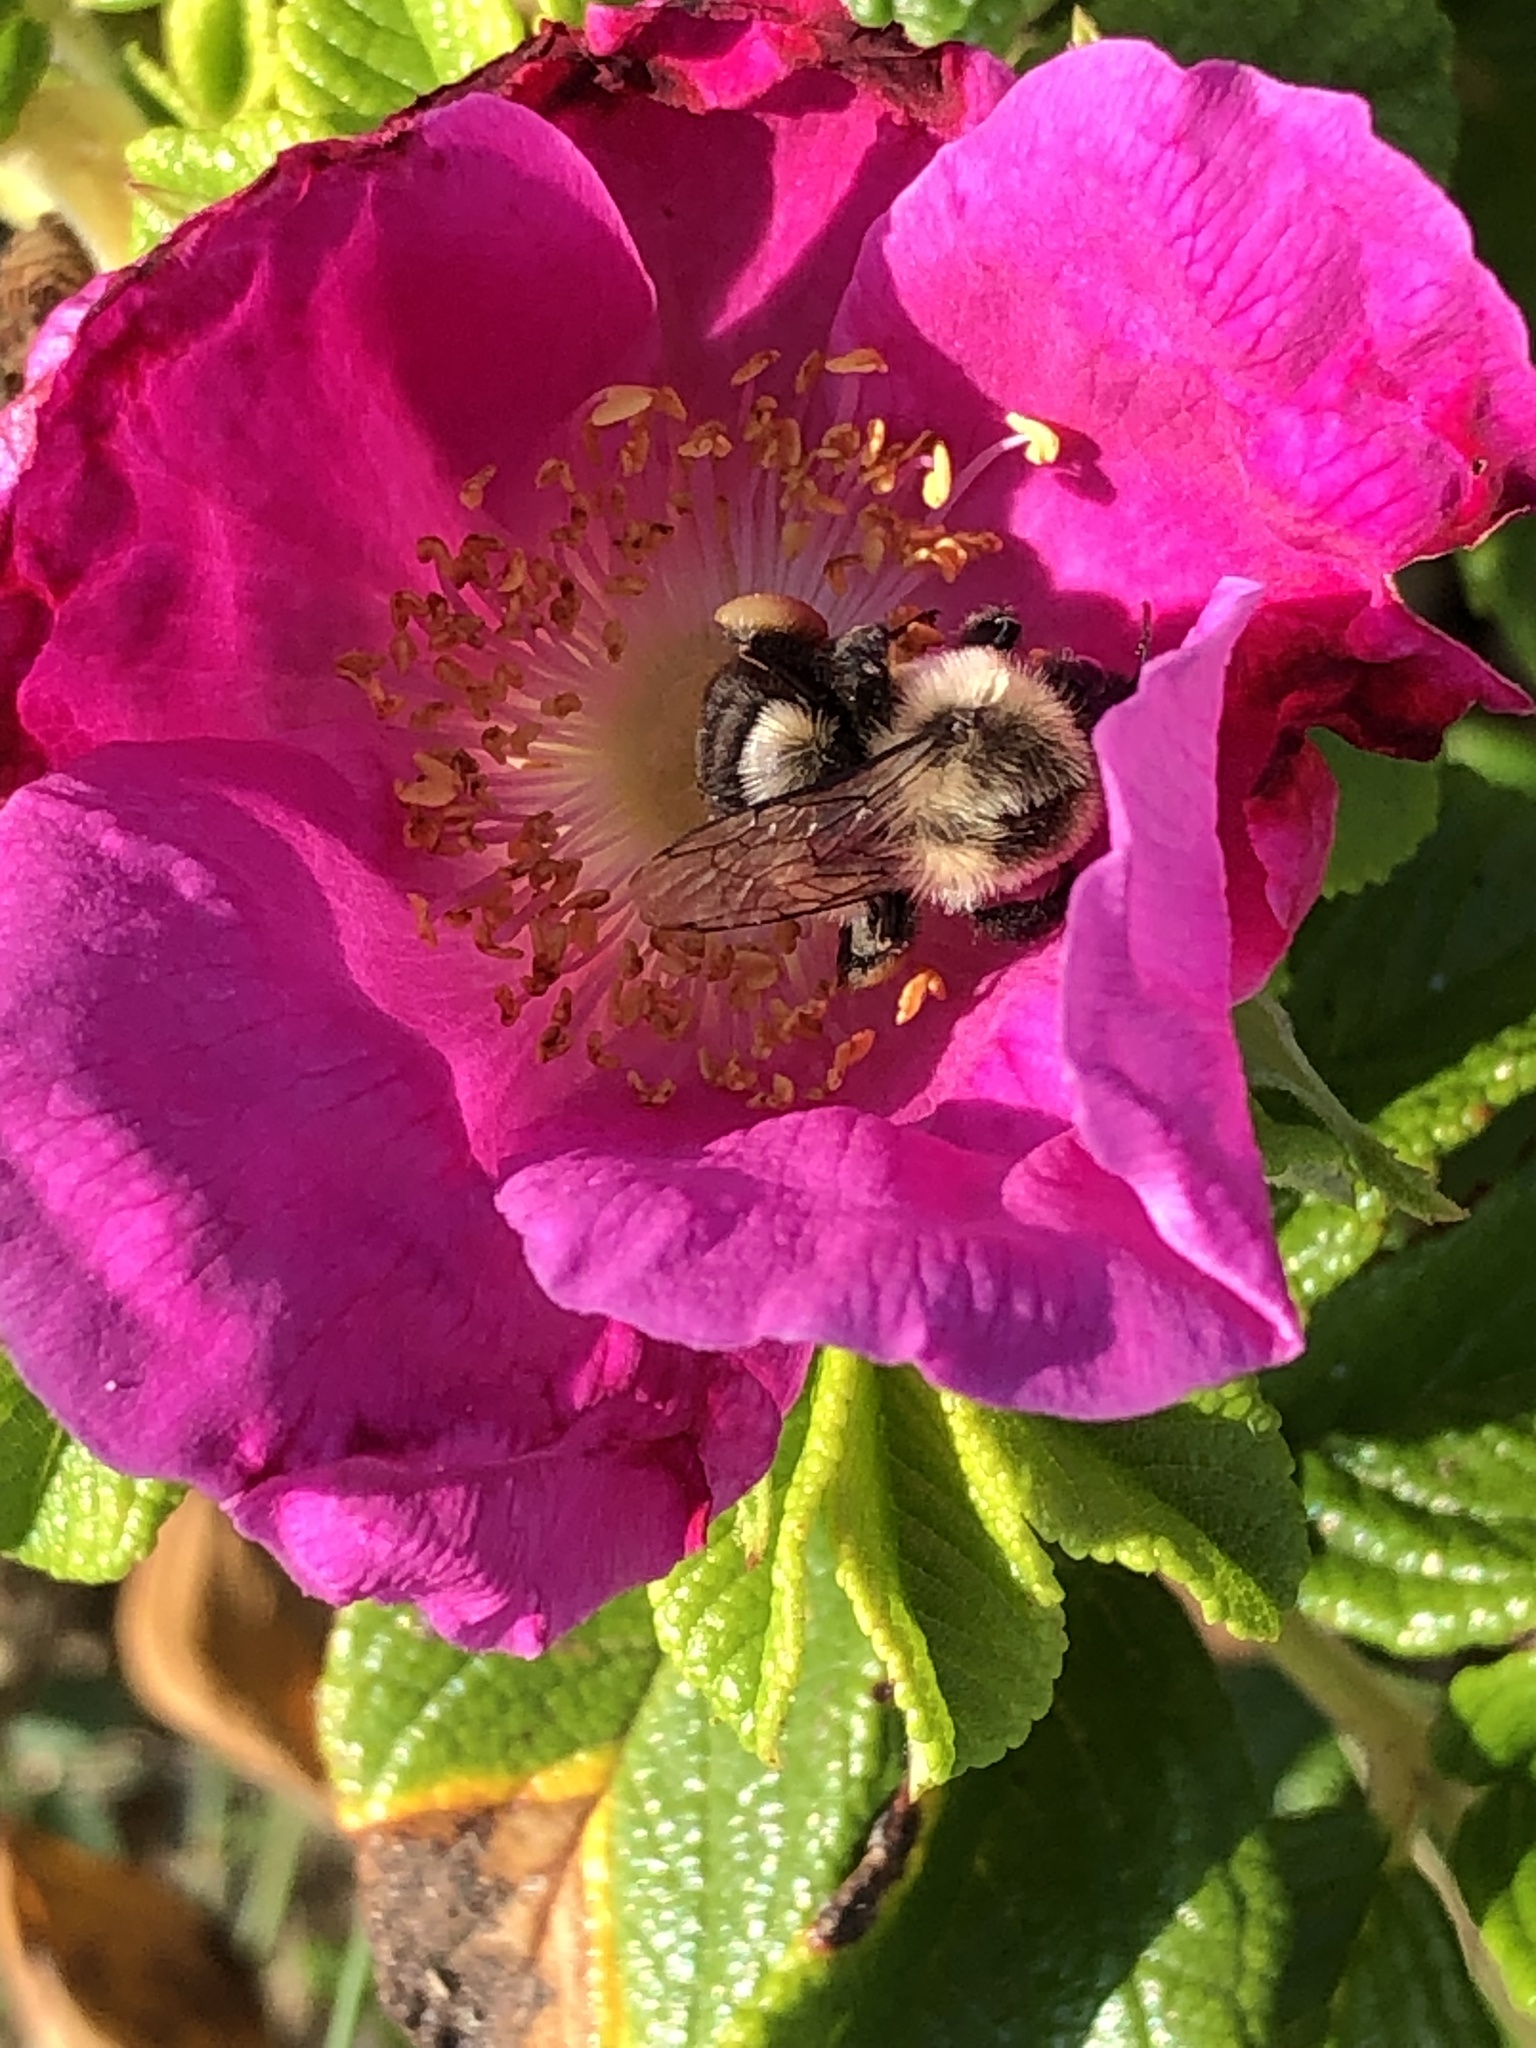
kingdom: Animalia
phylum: Arthropoda
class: Insecta
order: Hymenoptera
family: Apidae
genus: Bombus
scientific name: Bombus impatiens
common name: Common eastern bumble bee
